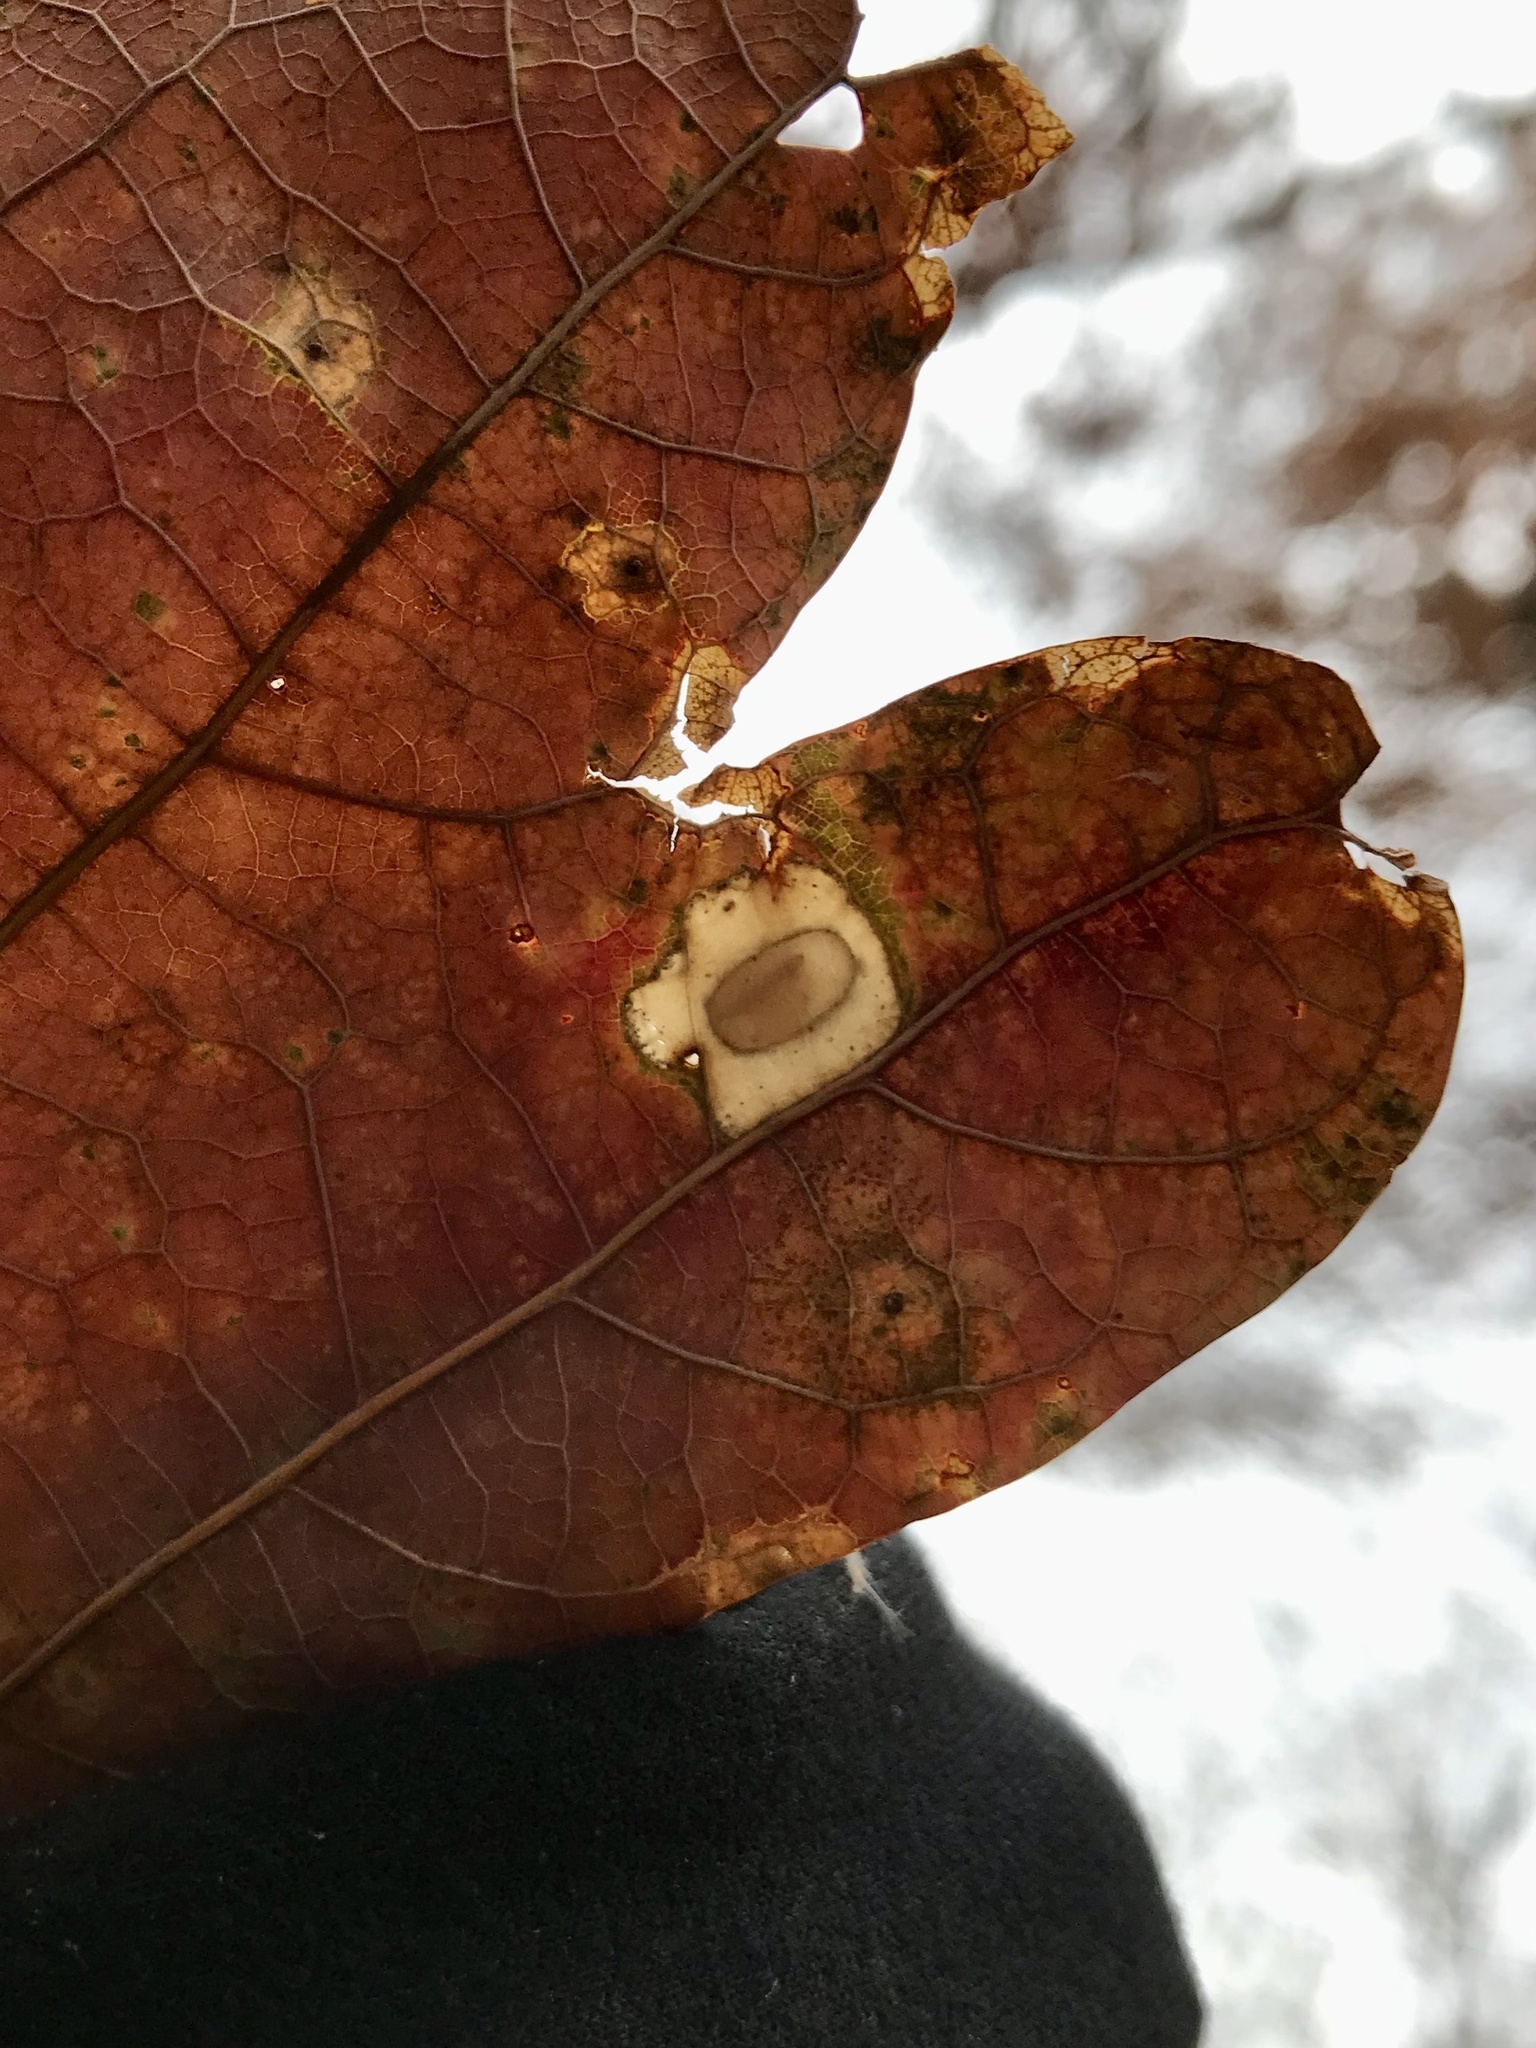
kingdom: Animalia
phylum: Arthropoda
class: Insecta
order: Lepidoptera
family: Gracillariidae
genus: Phyllonorycter
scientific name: Phyllonorycter basistrigella
